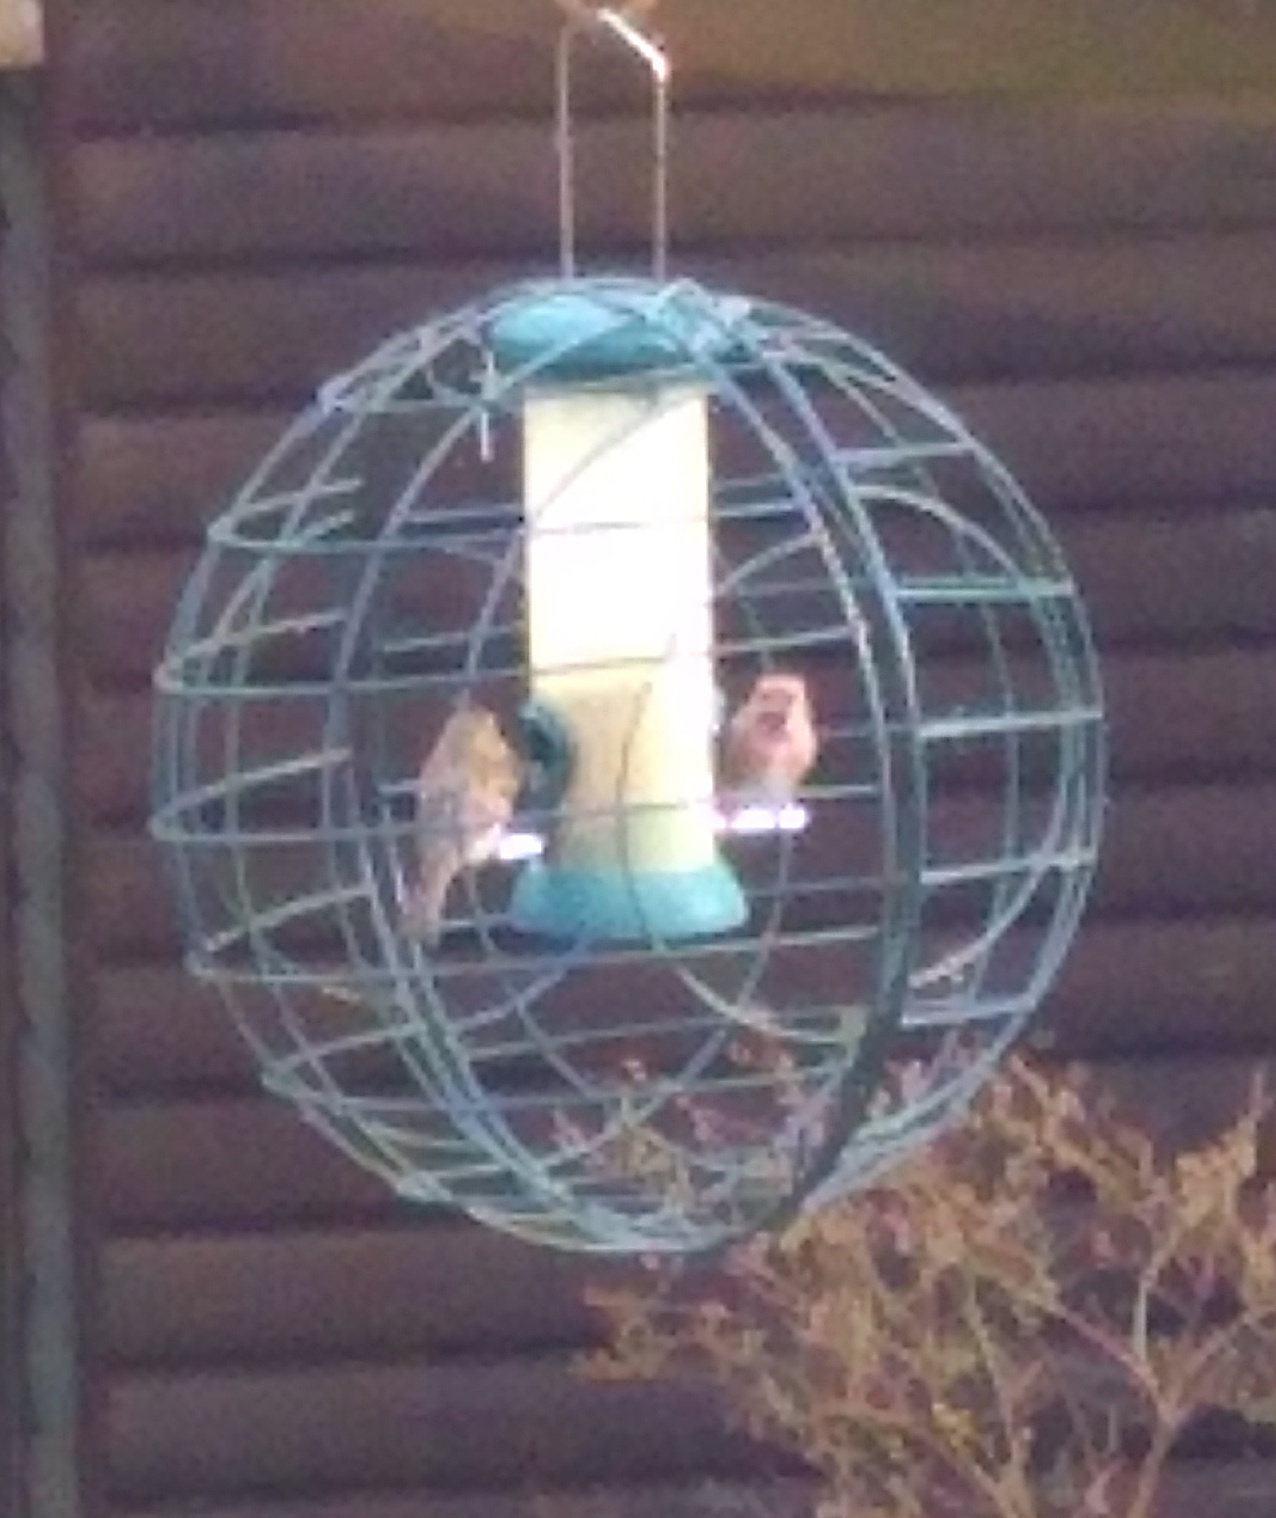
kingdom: Animalia
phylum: Chordata
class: Aves
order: Passeriformes
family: Fringillidae
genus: Acanthis
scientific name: Acanthis flammea
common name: Common redpoll
